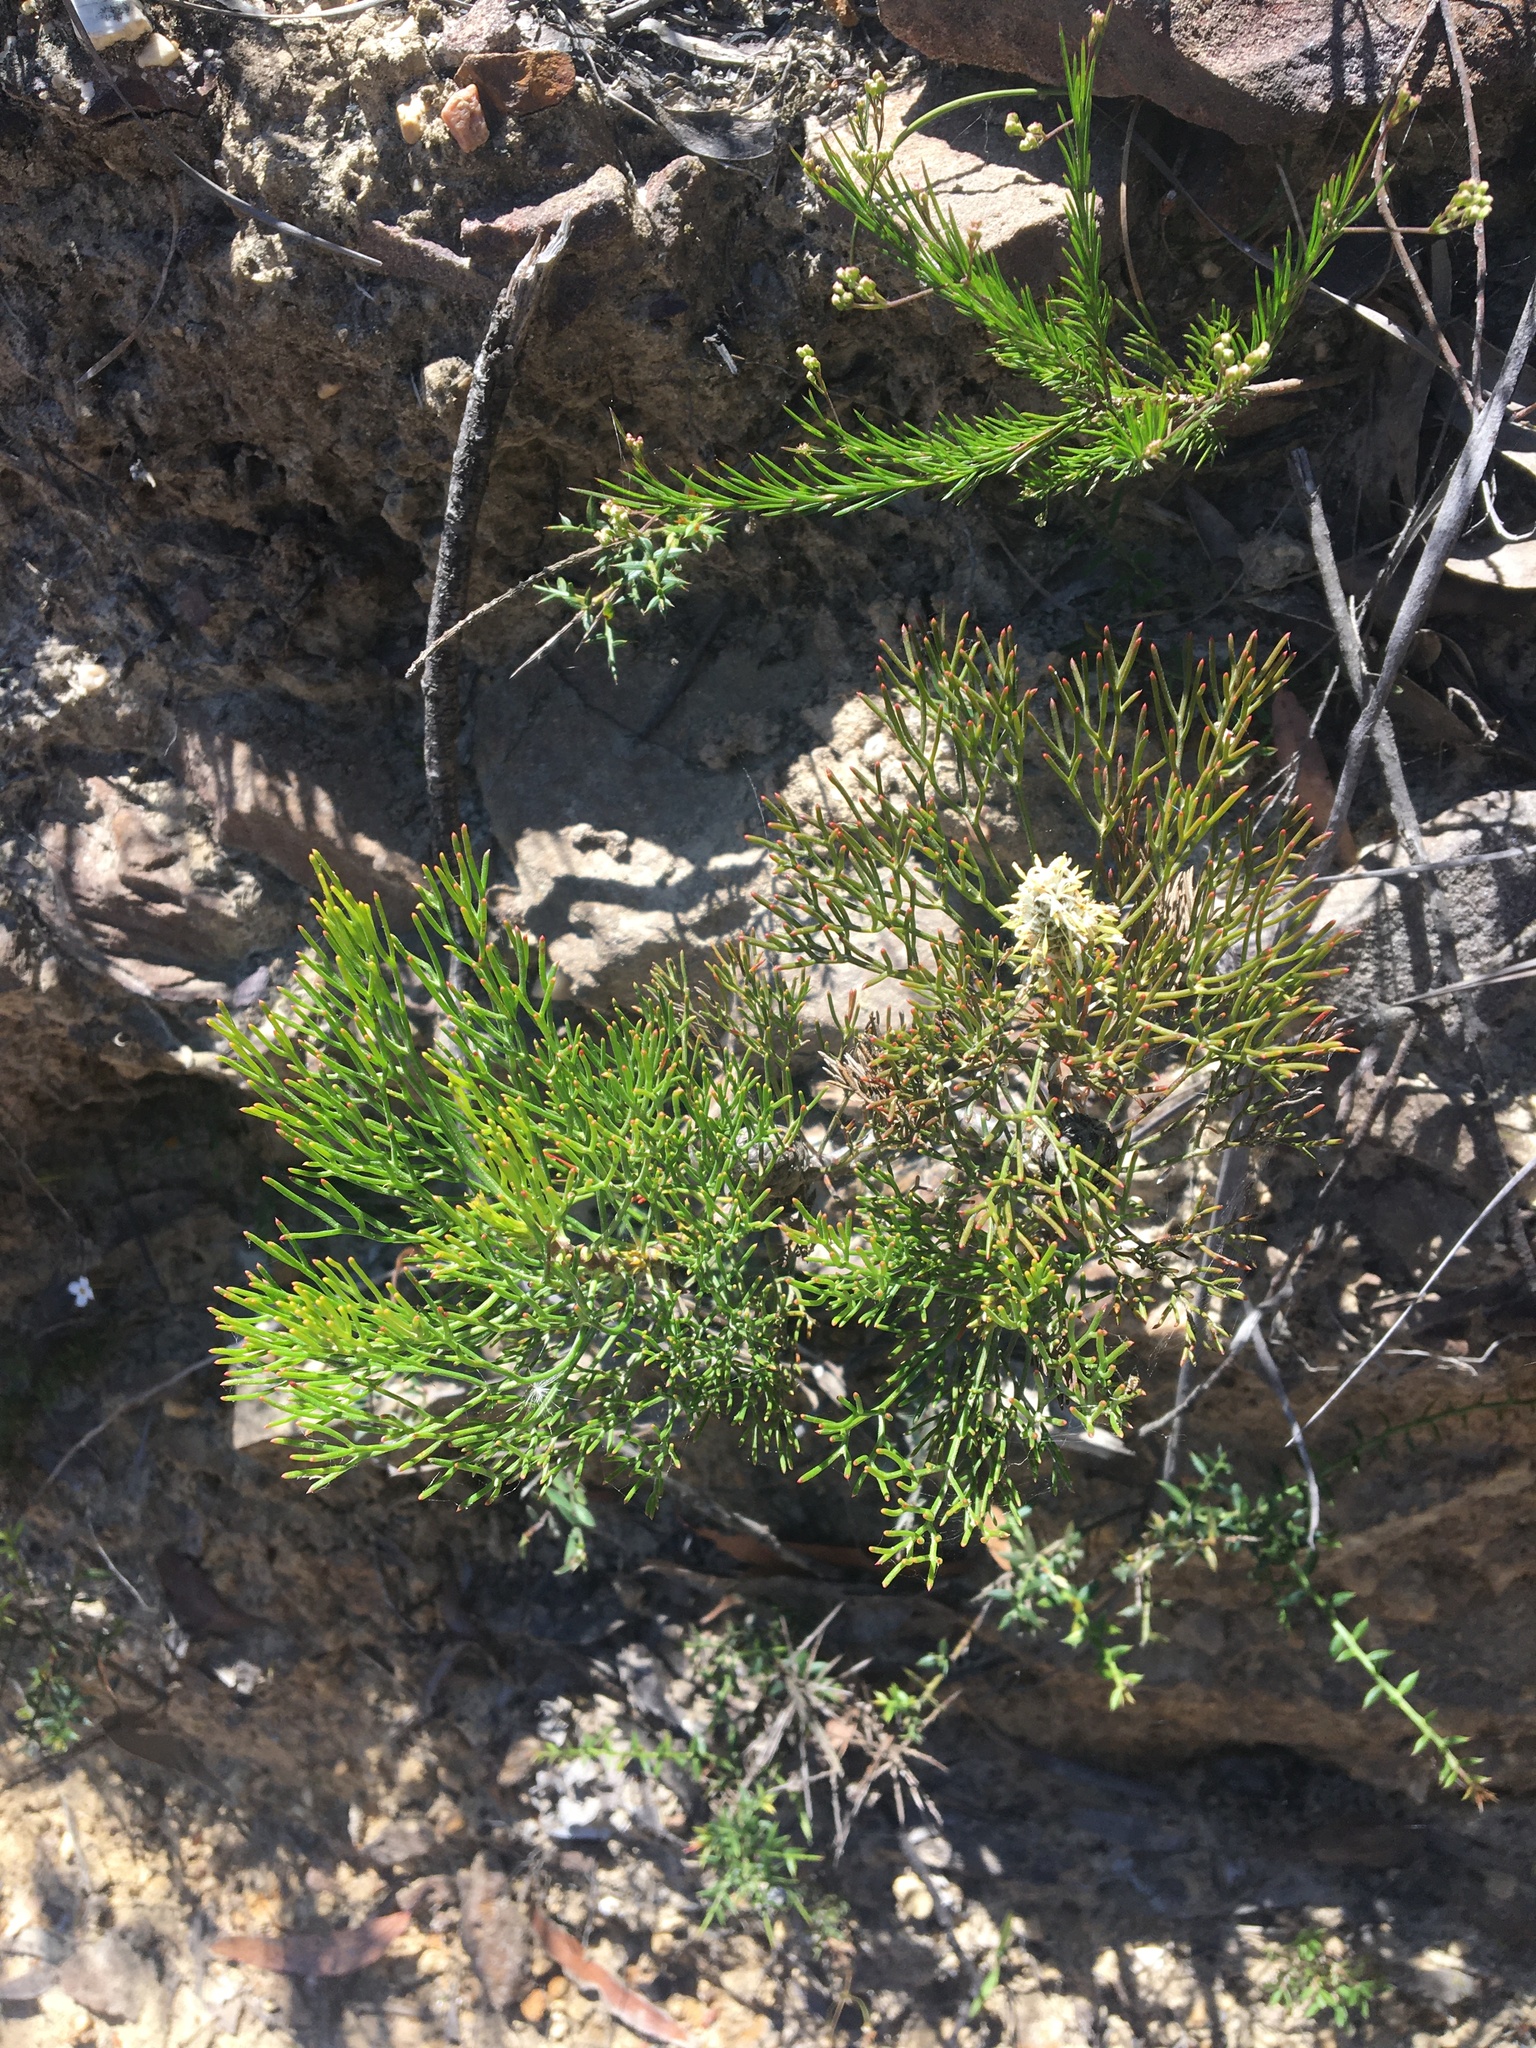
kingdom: Plantae
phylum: Tracheophyta
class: Magnoliopsida
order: Proteales
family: Proteaceae
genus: Petrophile
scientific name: Petrophile pulchella
